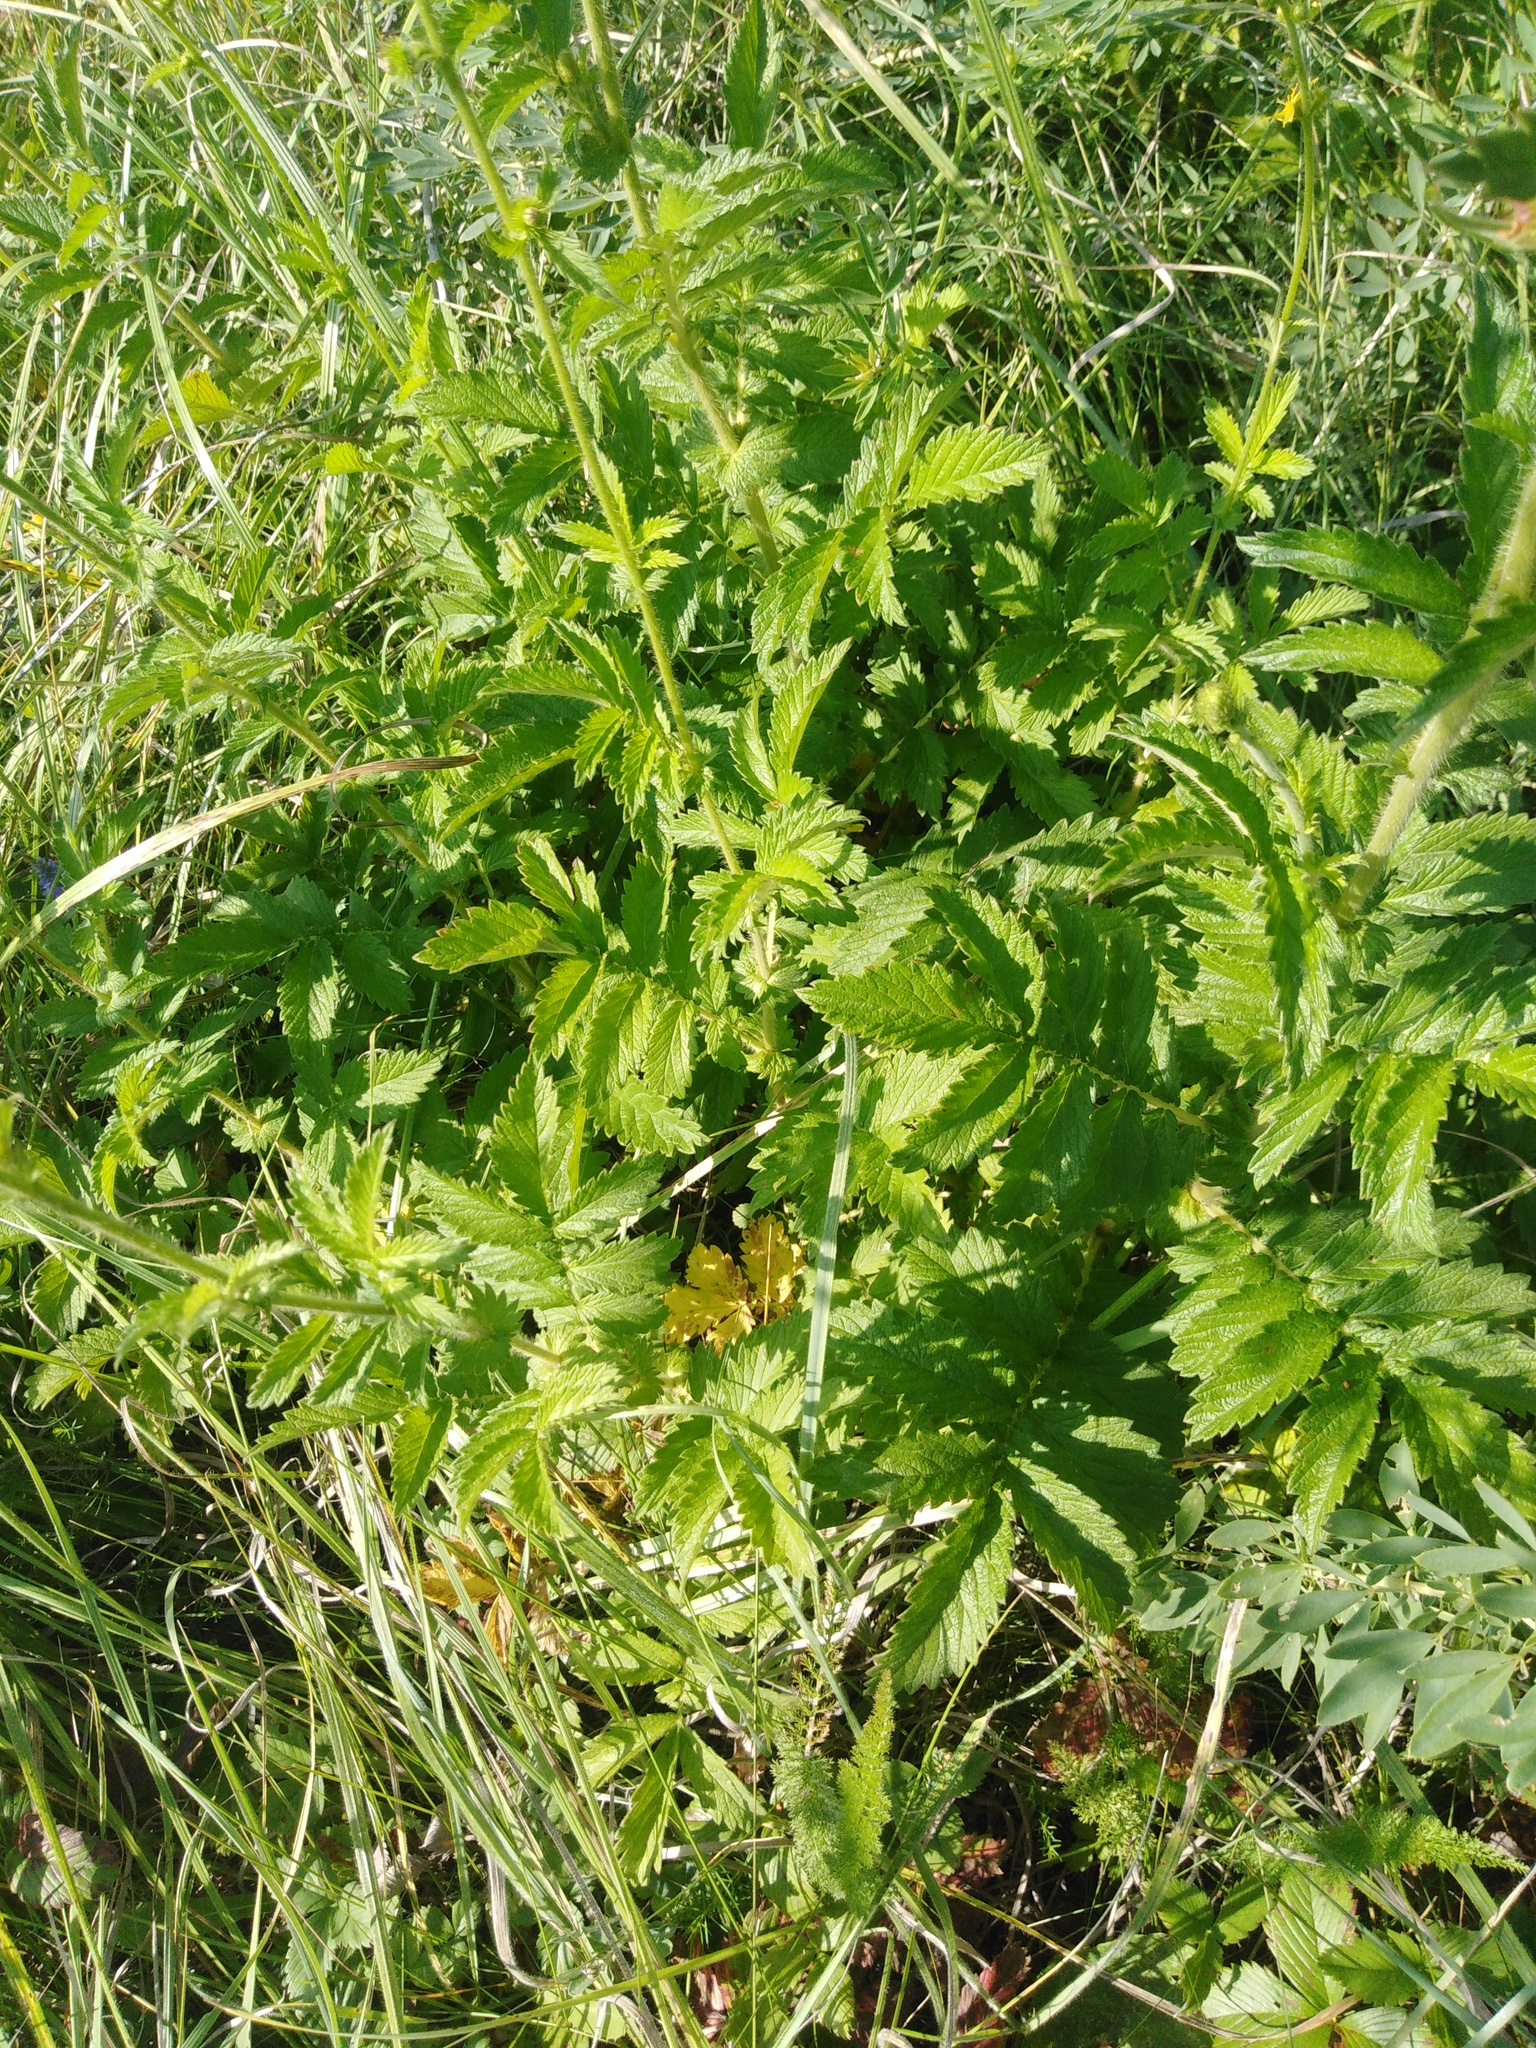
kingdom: Plantae
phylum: Tracheophyta
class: Magnoliopsida
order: Rosales
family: Rosaceae
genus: Agrimonia
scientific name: Agrimonia eupatoria
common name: Agrimony
